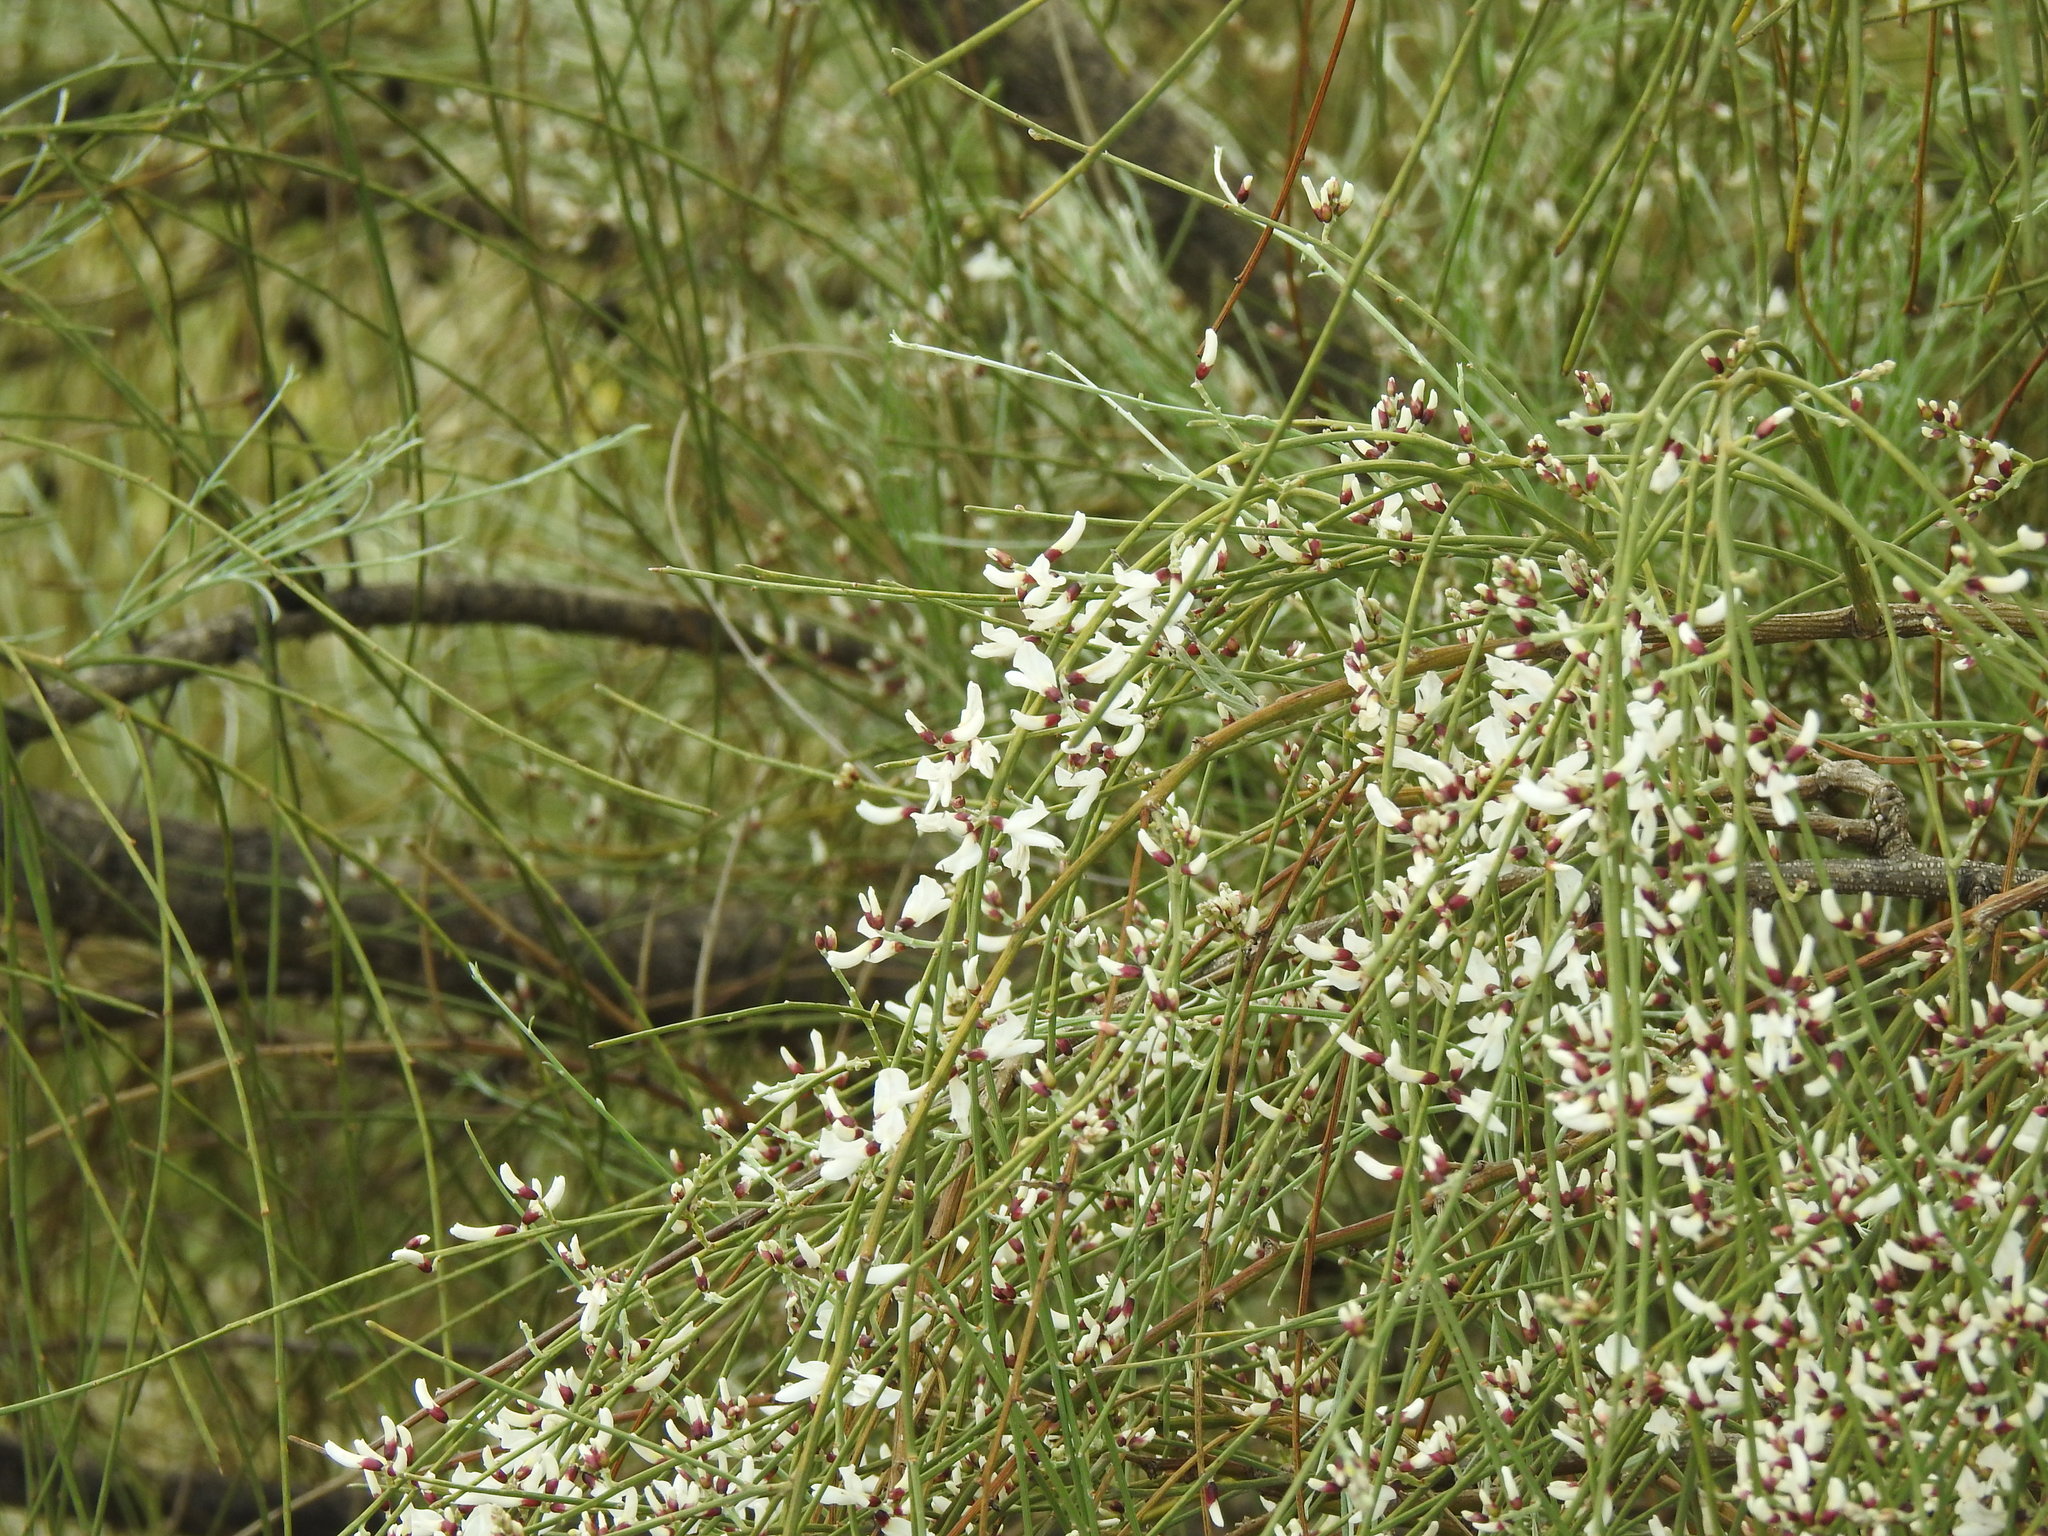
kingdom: Plantae
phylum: Tracheophyta
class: Magnoliopsida
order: Fabales
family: Fabaceae
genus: Retama
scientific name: Retama monosperma
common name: Bridal broom
